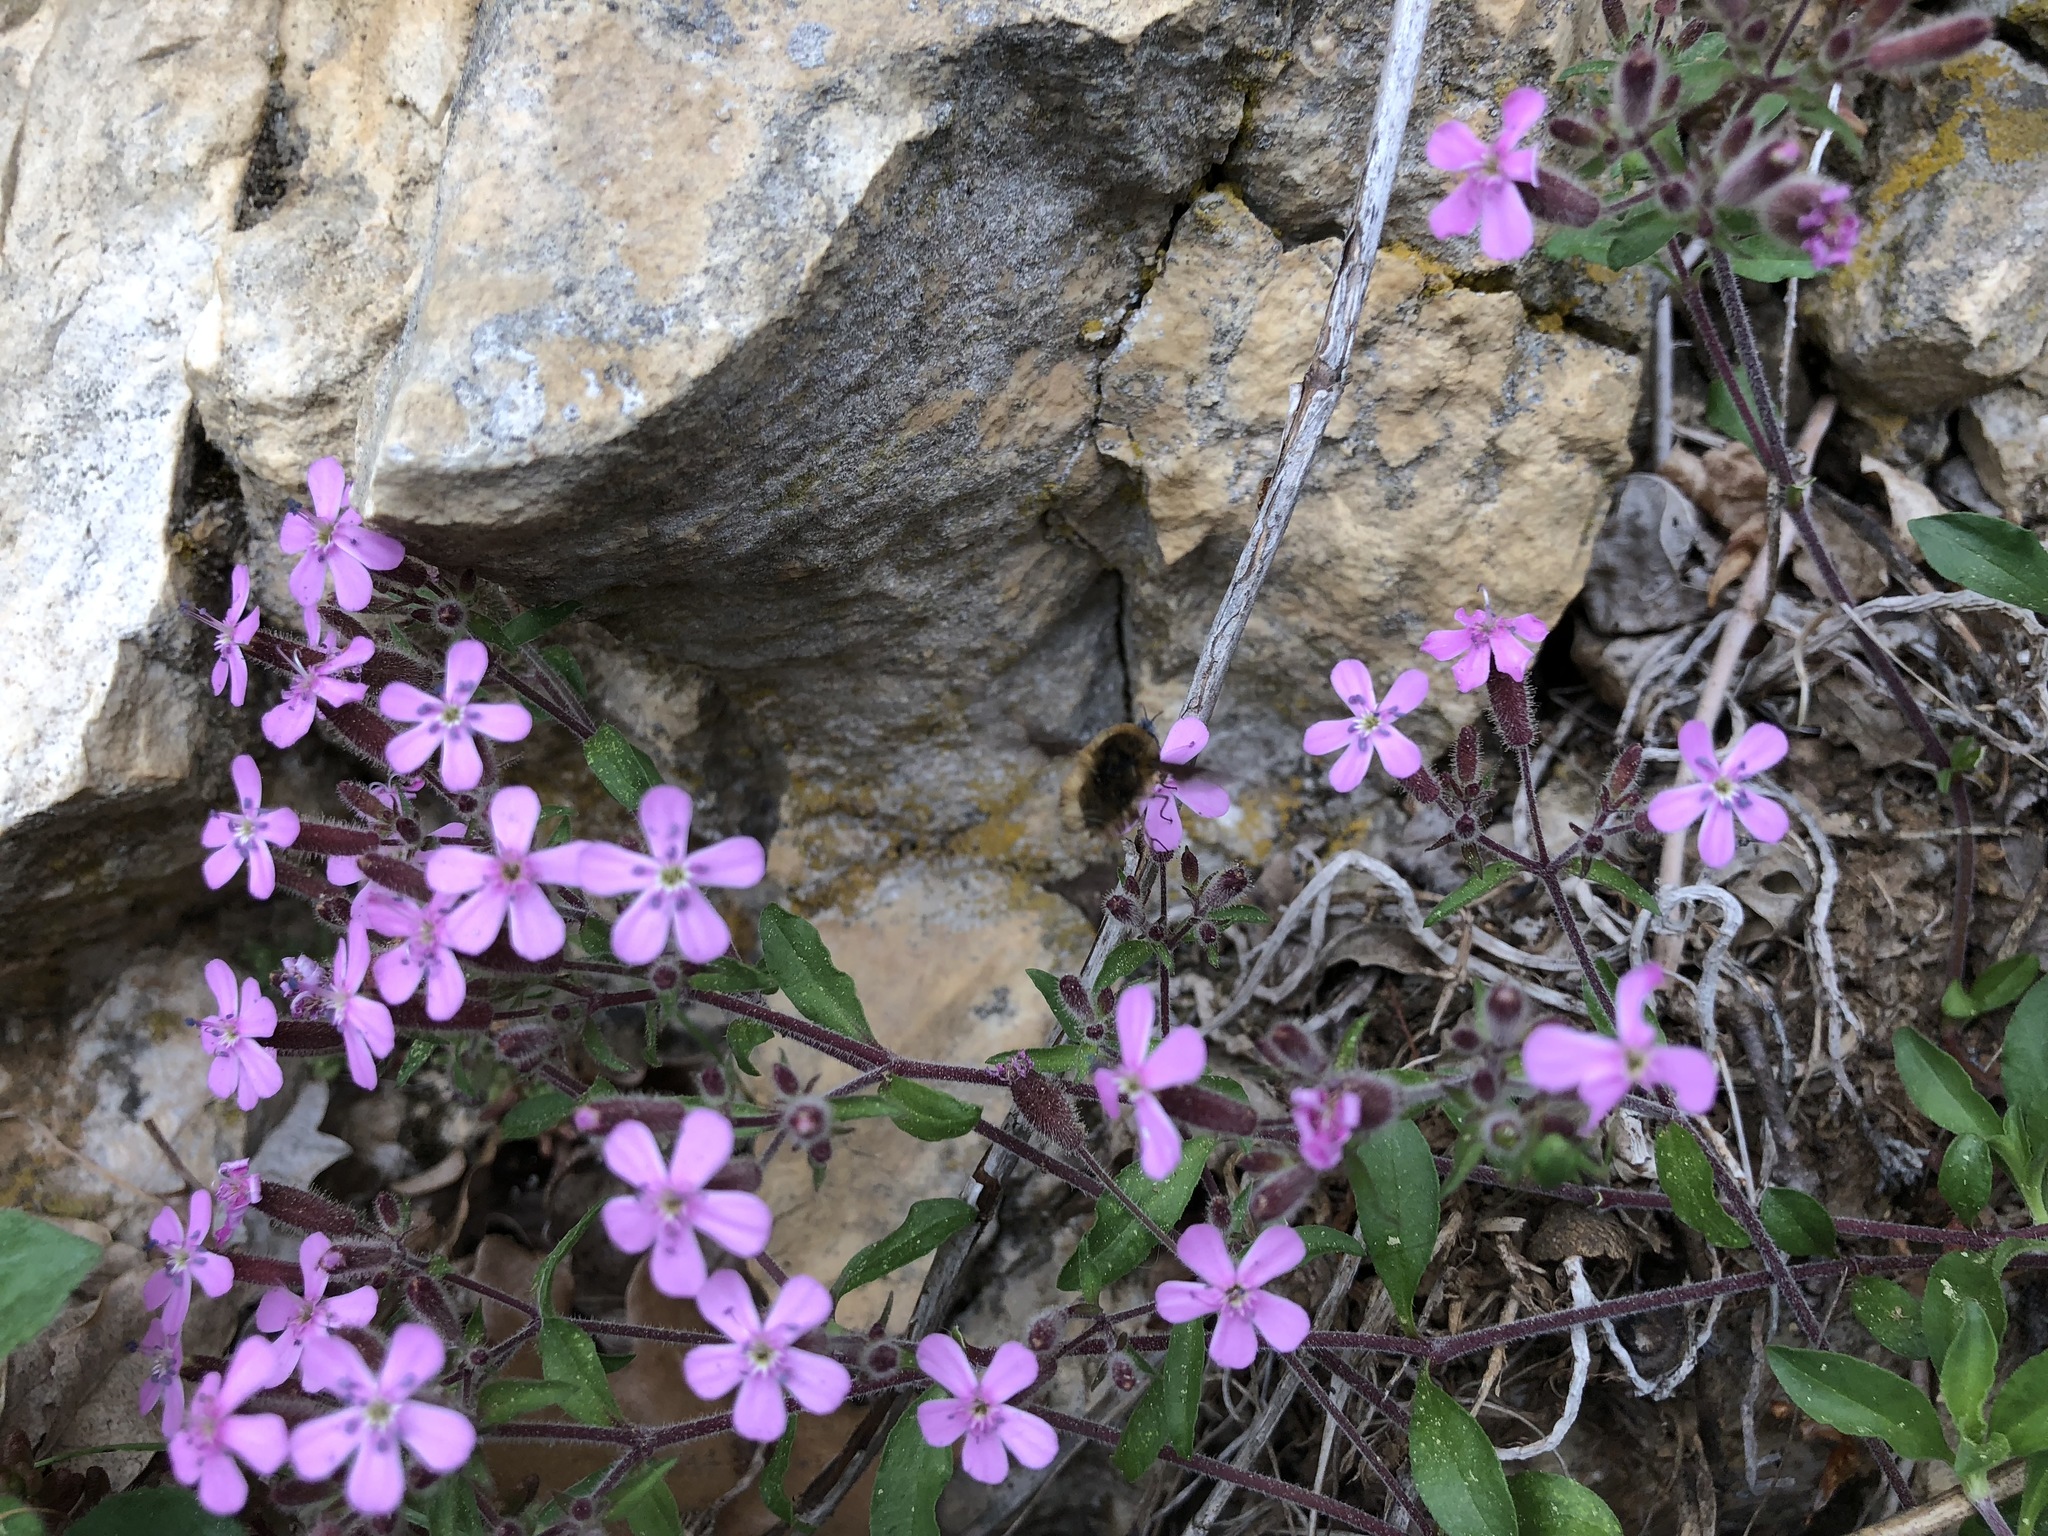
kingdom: Plantae
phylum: Tracheophyta
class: Magnoliopsida
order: Caryophyllales
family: Caryophyllaceae
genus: Saponaria
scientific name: Saponaria ocymoides
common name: Rock soapwort
